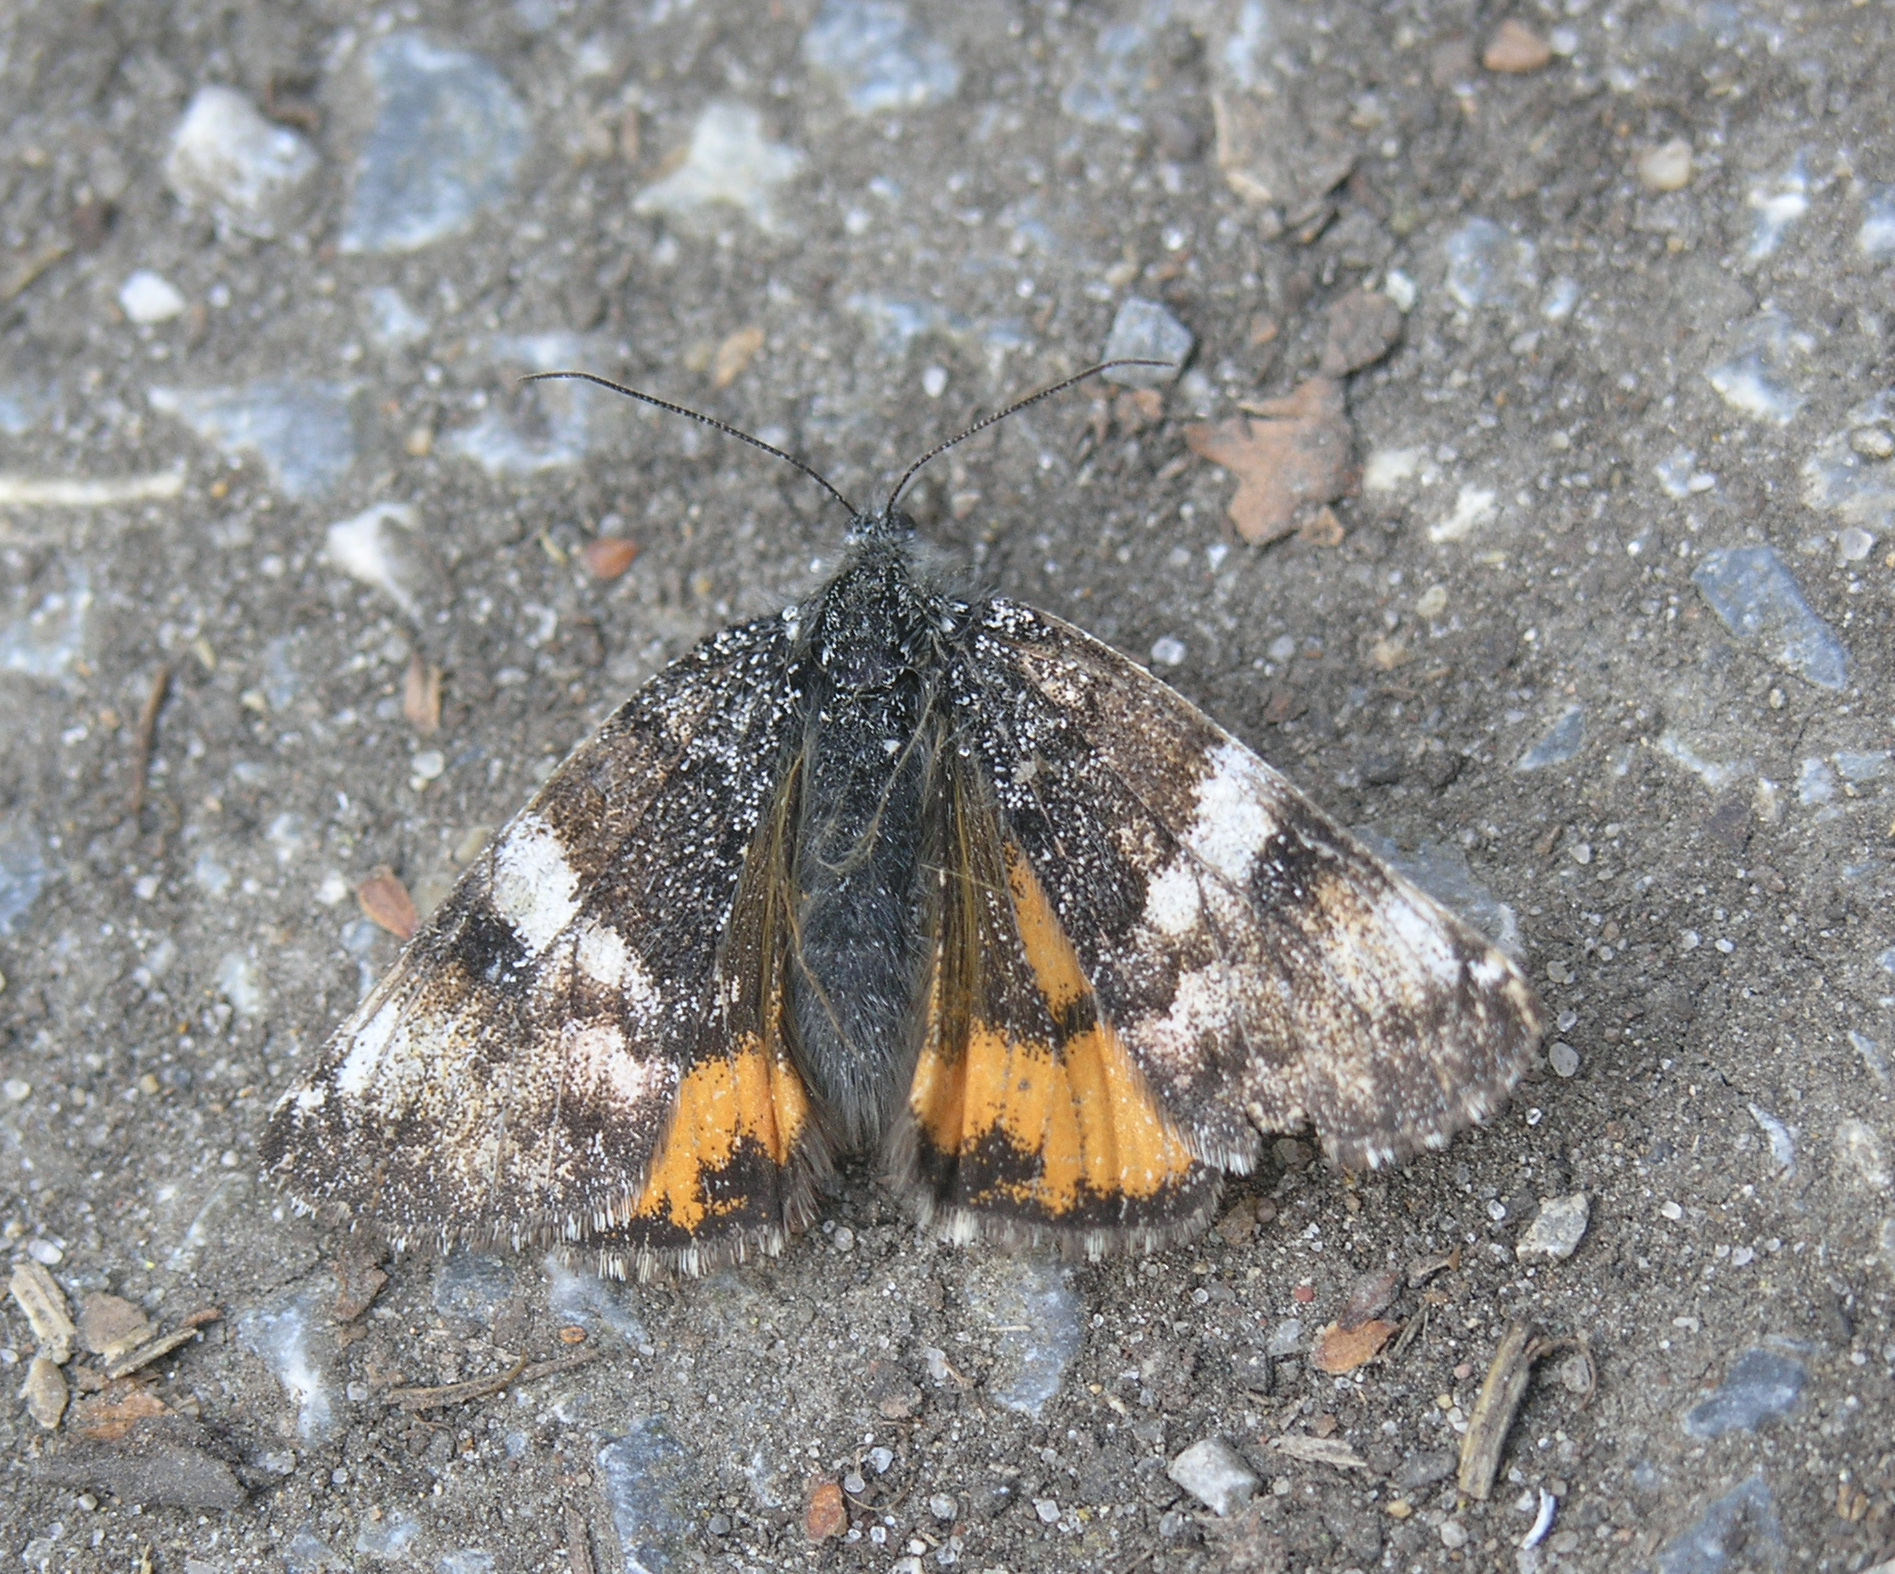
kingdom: Animalia
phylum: Arthropoda
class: Insecta
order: Lepidoptera
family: Geometridae
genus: Archiearis
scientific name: Archiearis parthenias
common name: Orange underwing
